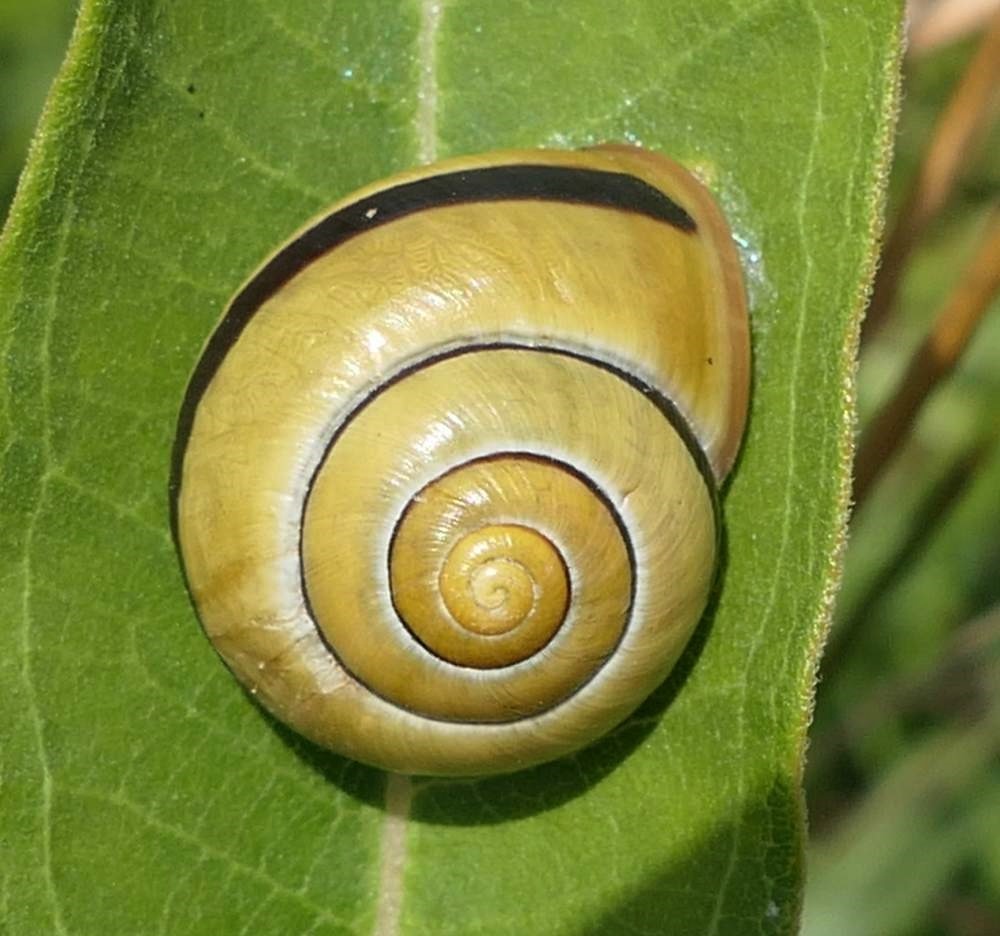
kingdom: Animalia
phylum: Mollusca
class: Gastropoda
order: Stylommatophora
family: Helicidae
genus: Cepaea
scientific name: Cepaea nemoralis
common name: Grovesnail
